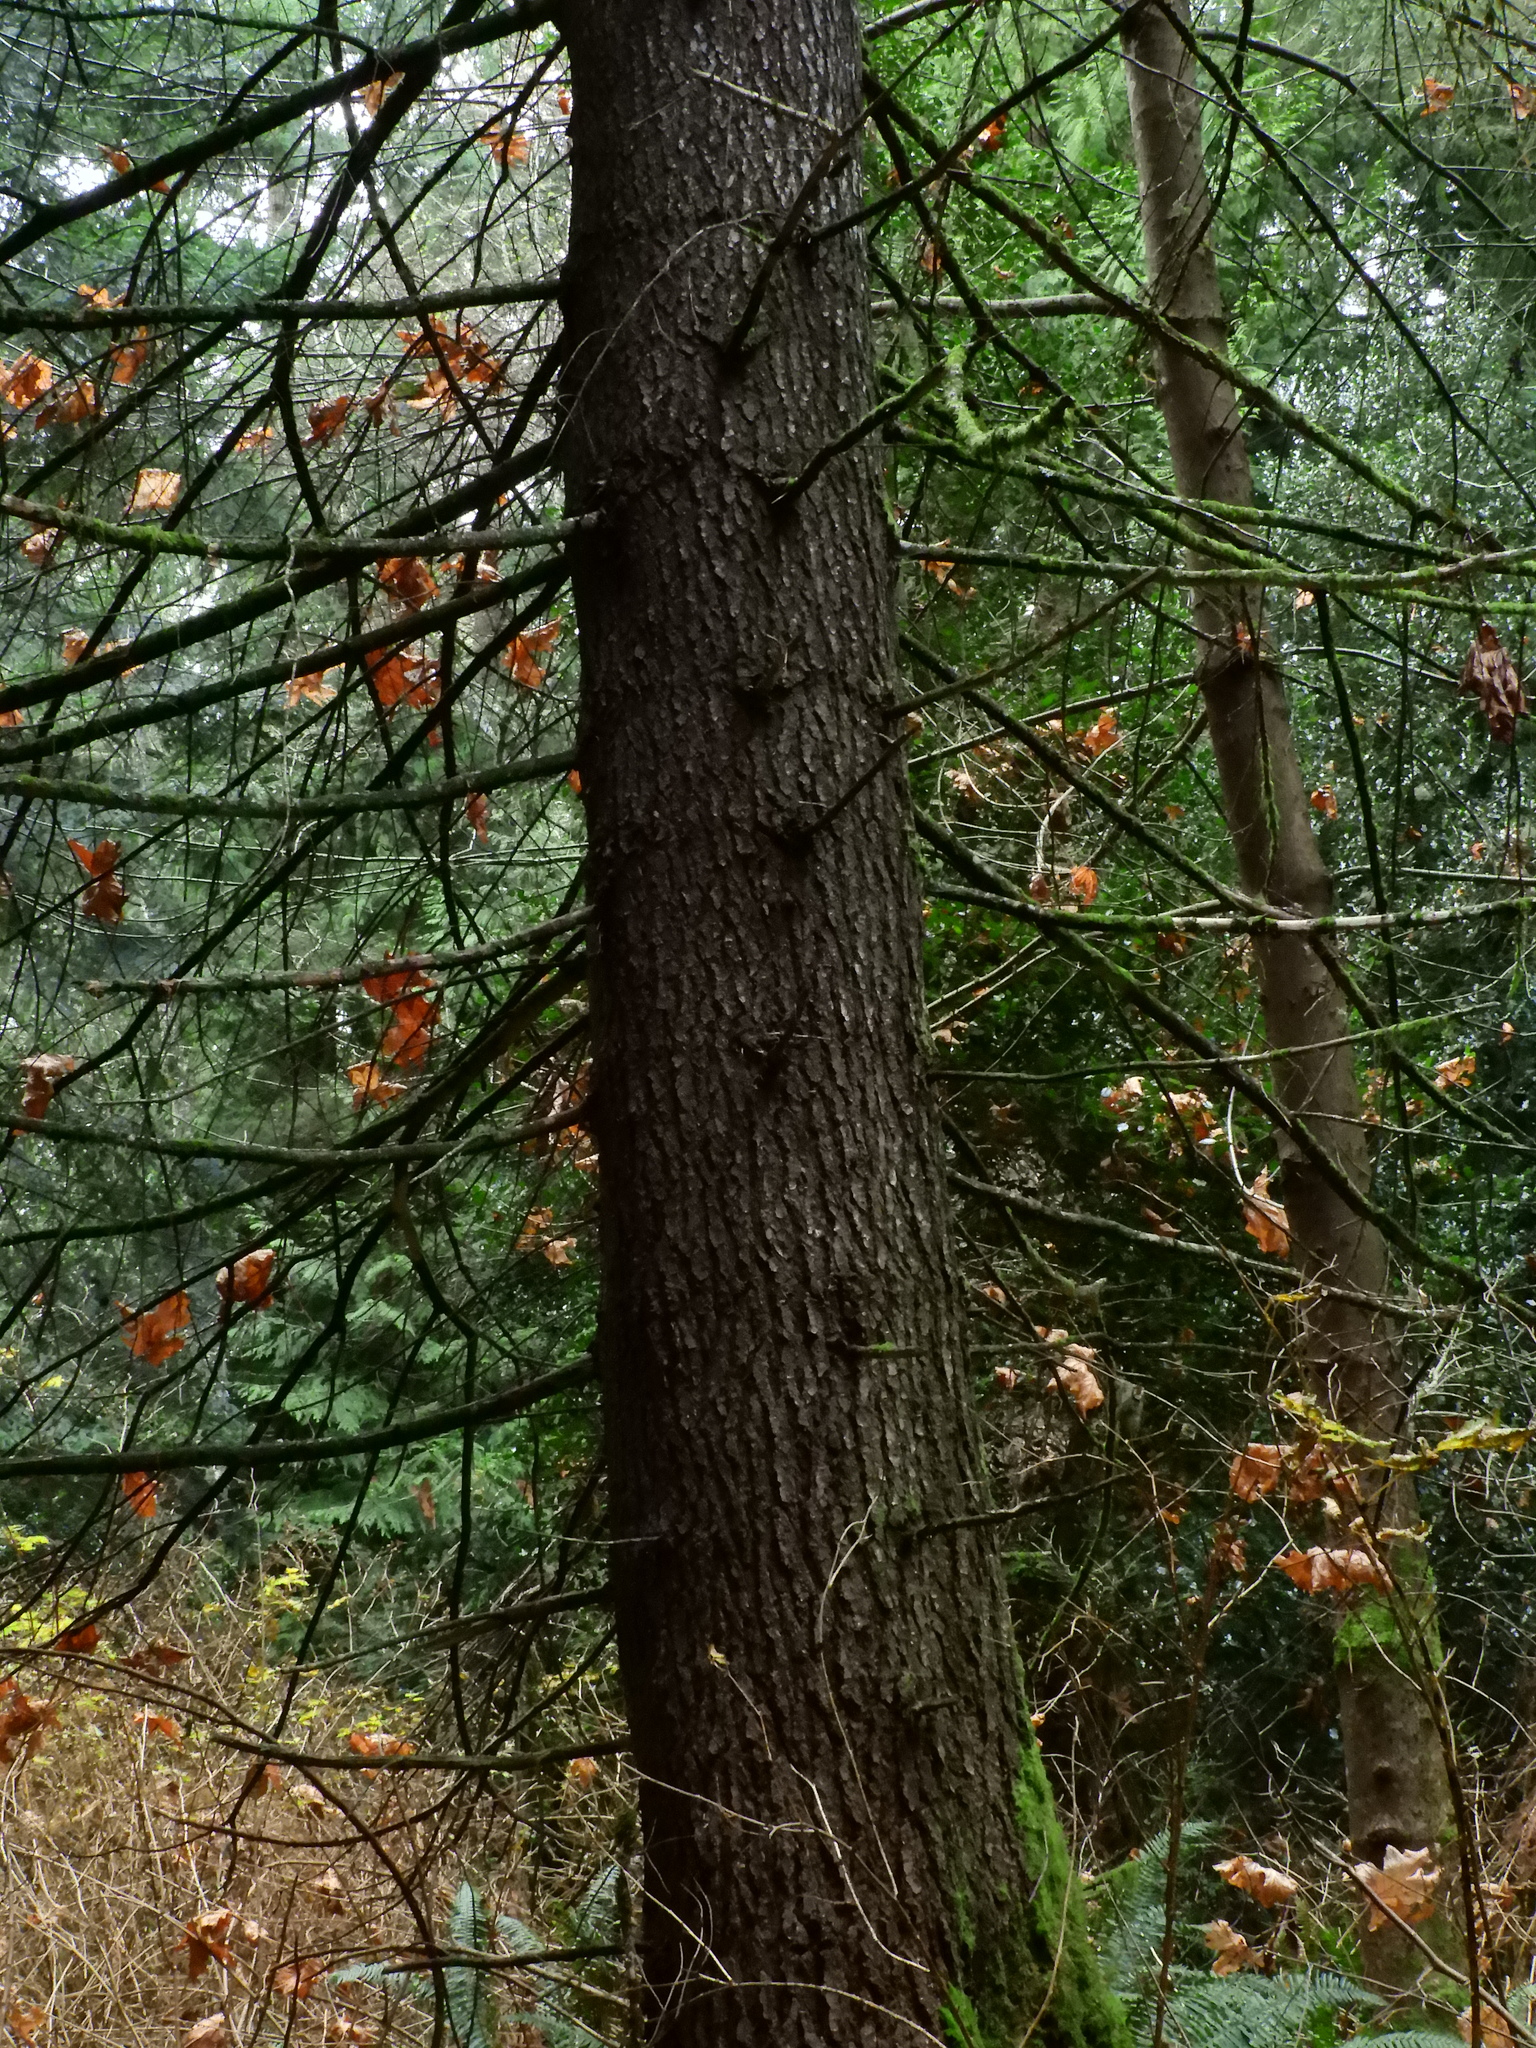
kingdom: Plantae
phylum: Tracheophyta
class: Pinopsida
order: Pinales
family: Pinaceae
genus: Abies
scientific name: Abies grandis
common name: Giant fir
